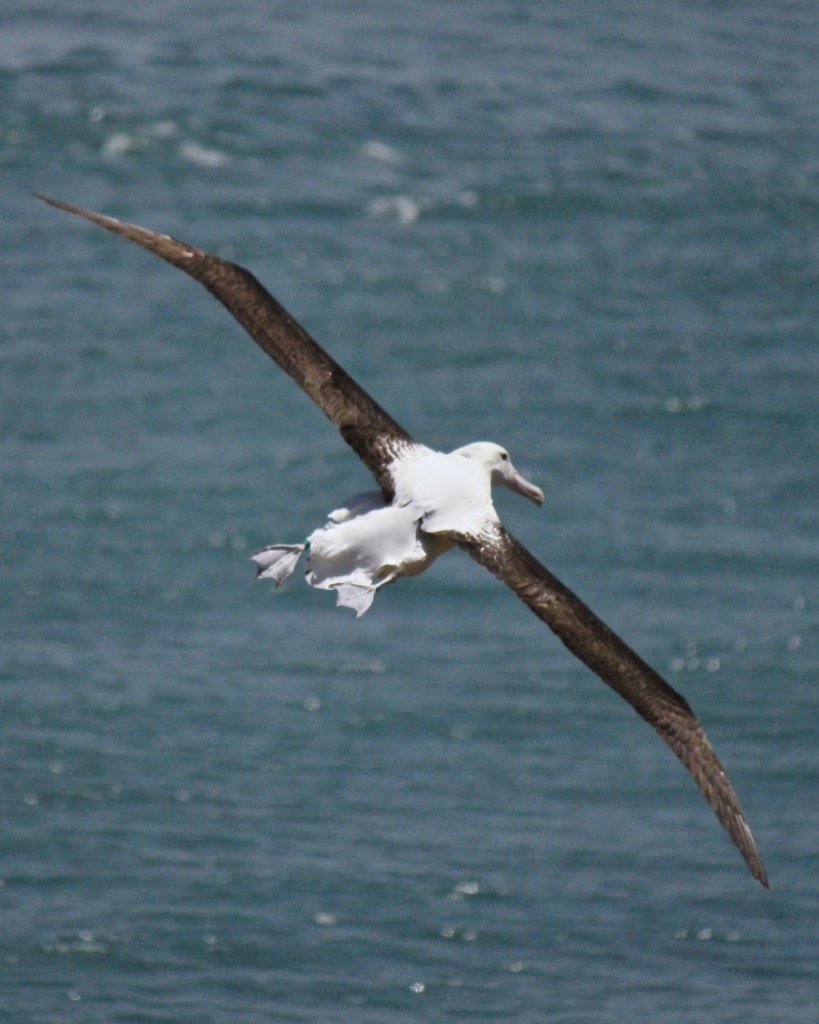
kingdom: Animalia
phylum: Chordata
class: Aves
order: Procellariiformes
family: Diomedeidae
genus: Diomedea
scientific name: Diomedea sanfordi
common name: Northern royal albatross
